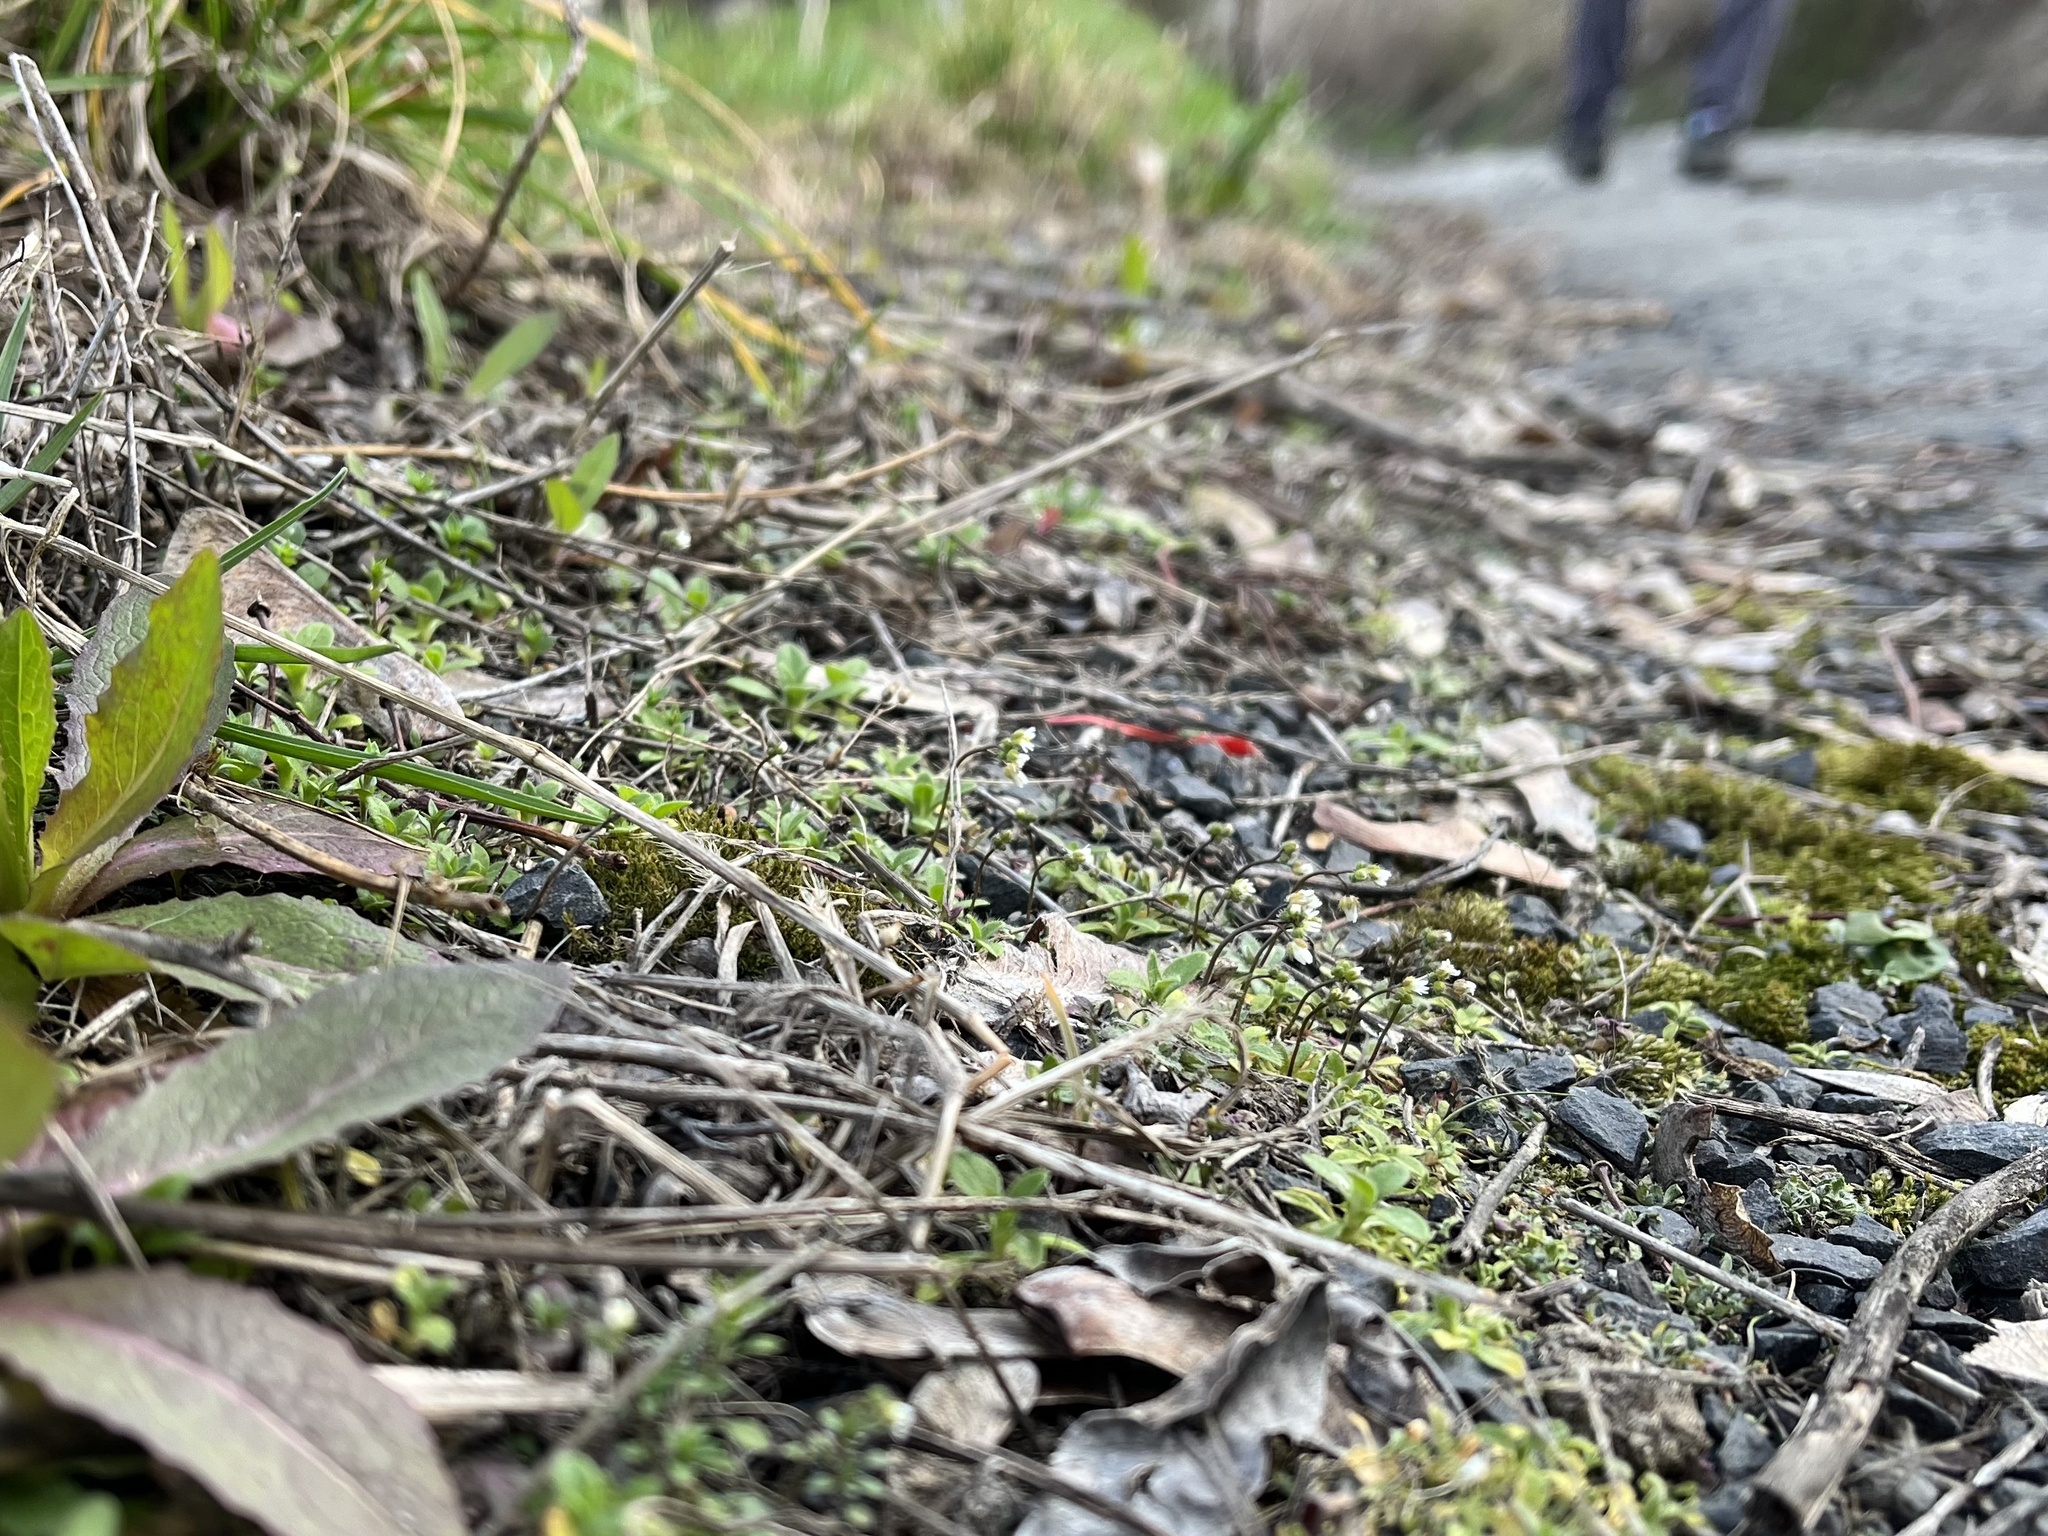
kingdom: Plantae
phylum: Tracheophyta
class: Magnoliopsida
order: Brassicales
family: Brassicaceae
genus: Draba
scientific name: Draba verna
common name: Spring draba
